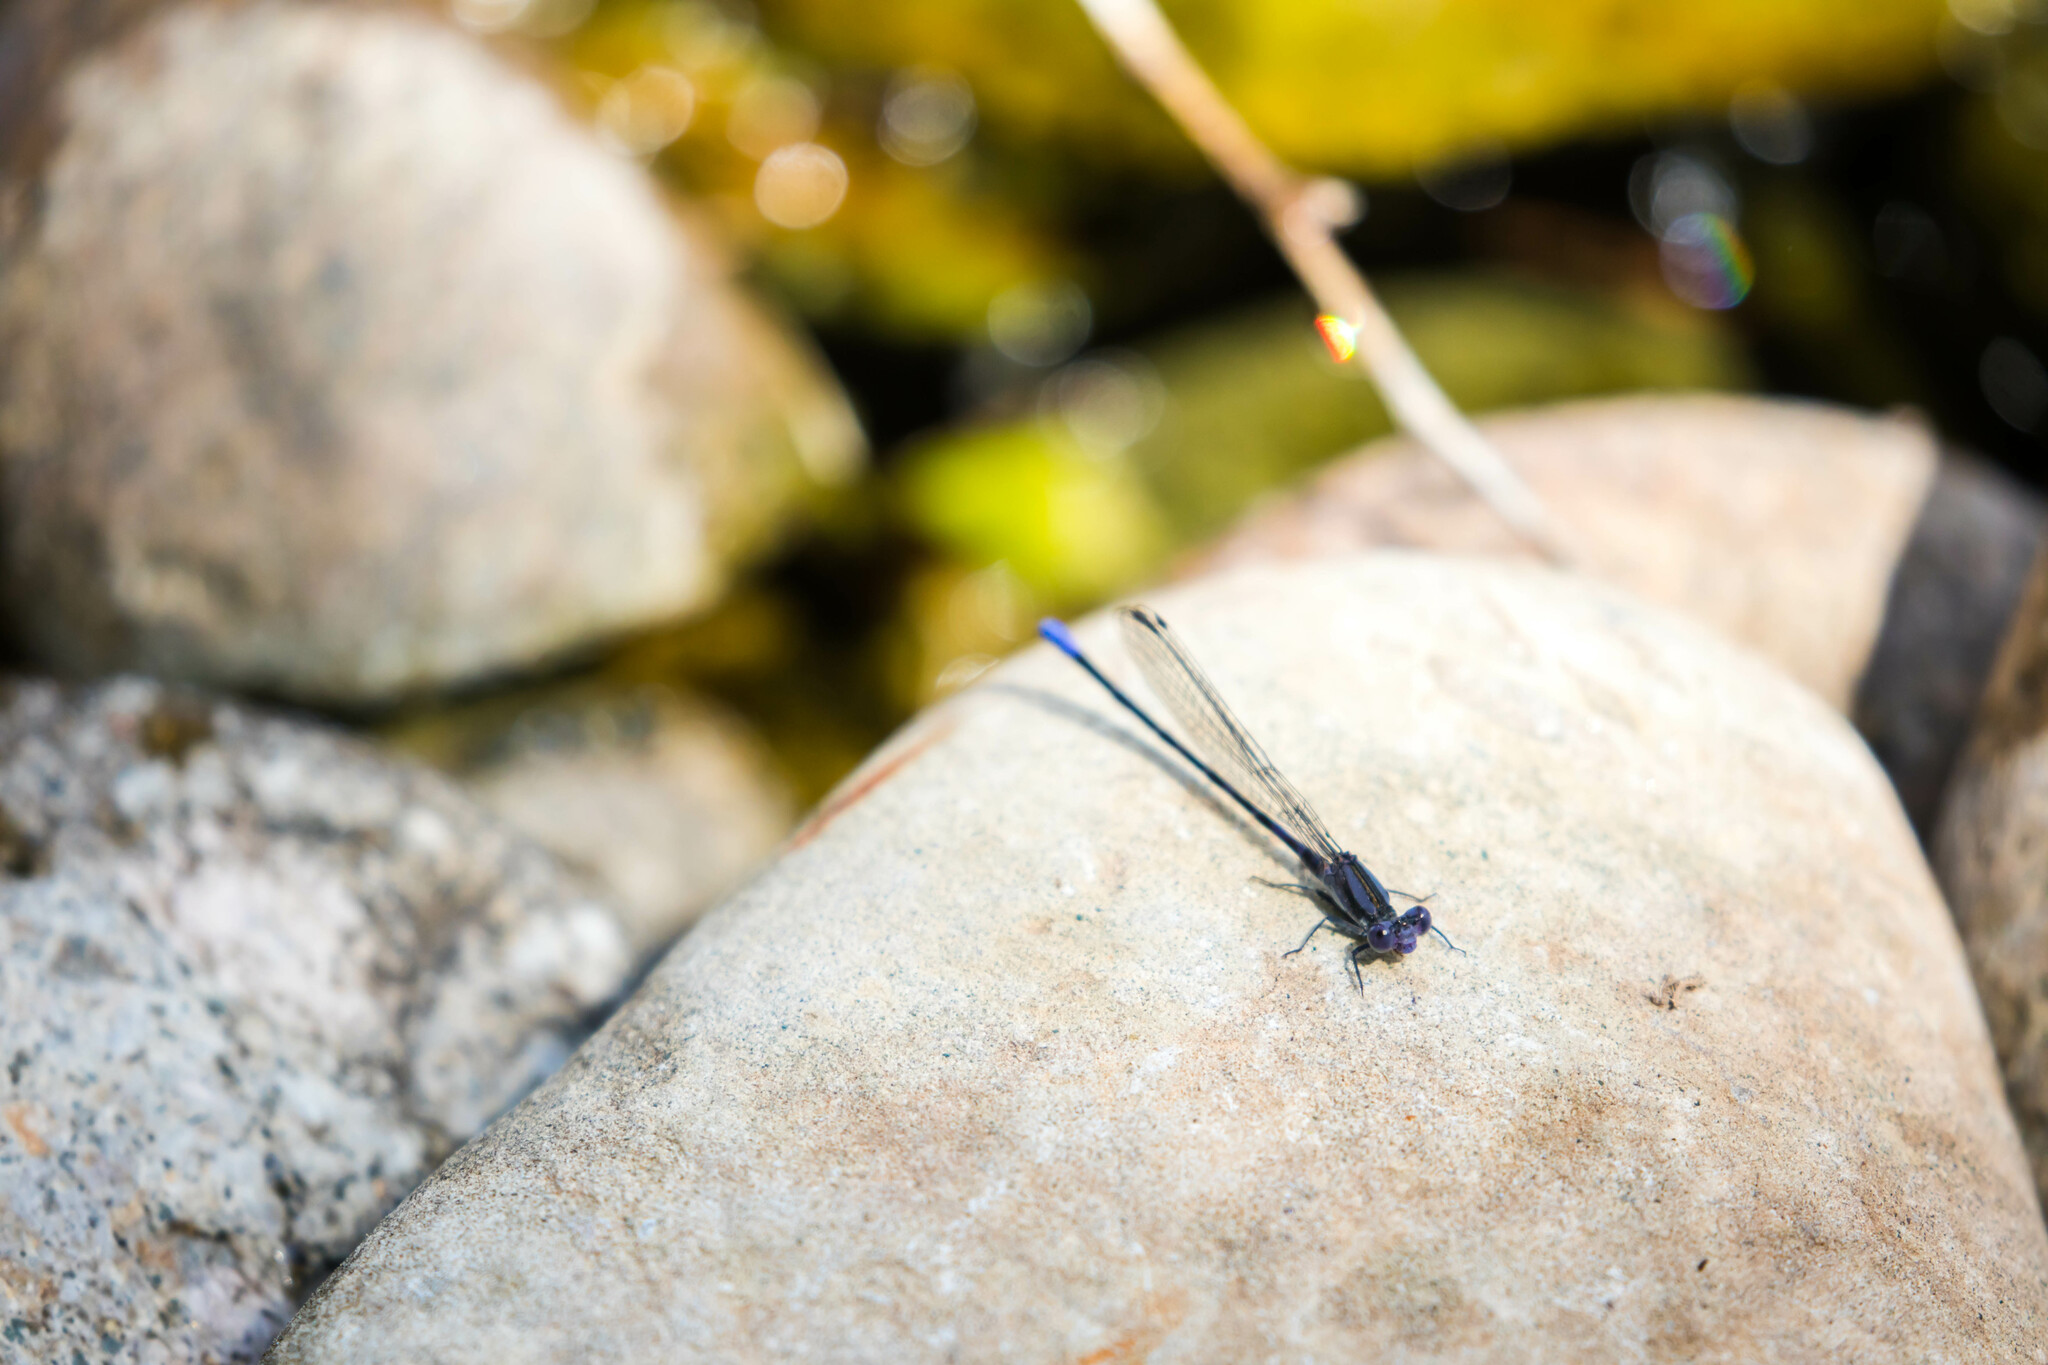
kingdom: Animalia
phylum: Arthropoda
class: Insecta
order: Odonata
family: Coenagrionidae
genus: Argia
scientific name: Argia immunda
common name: Kiowa dancer
